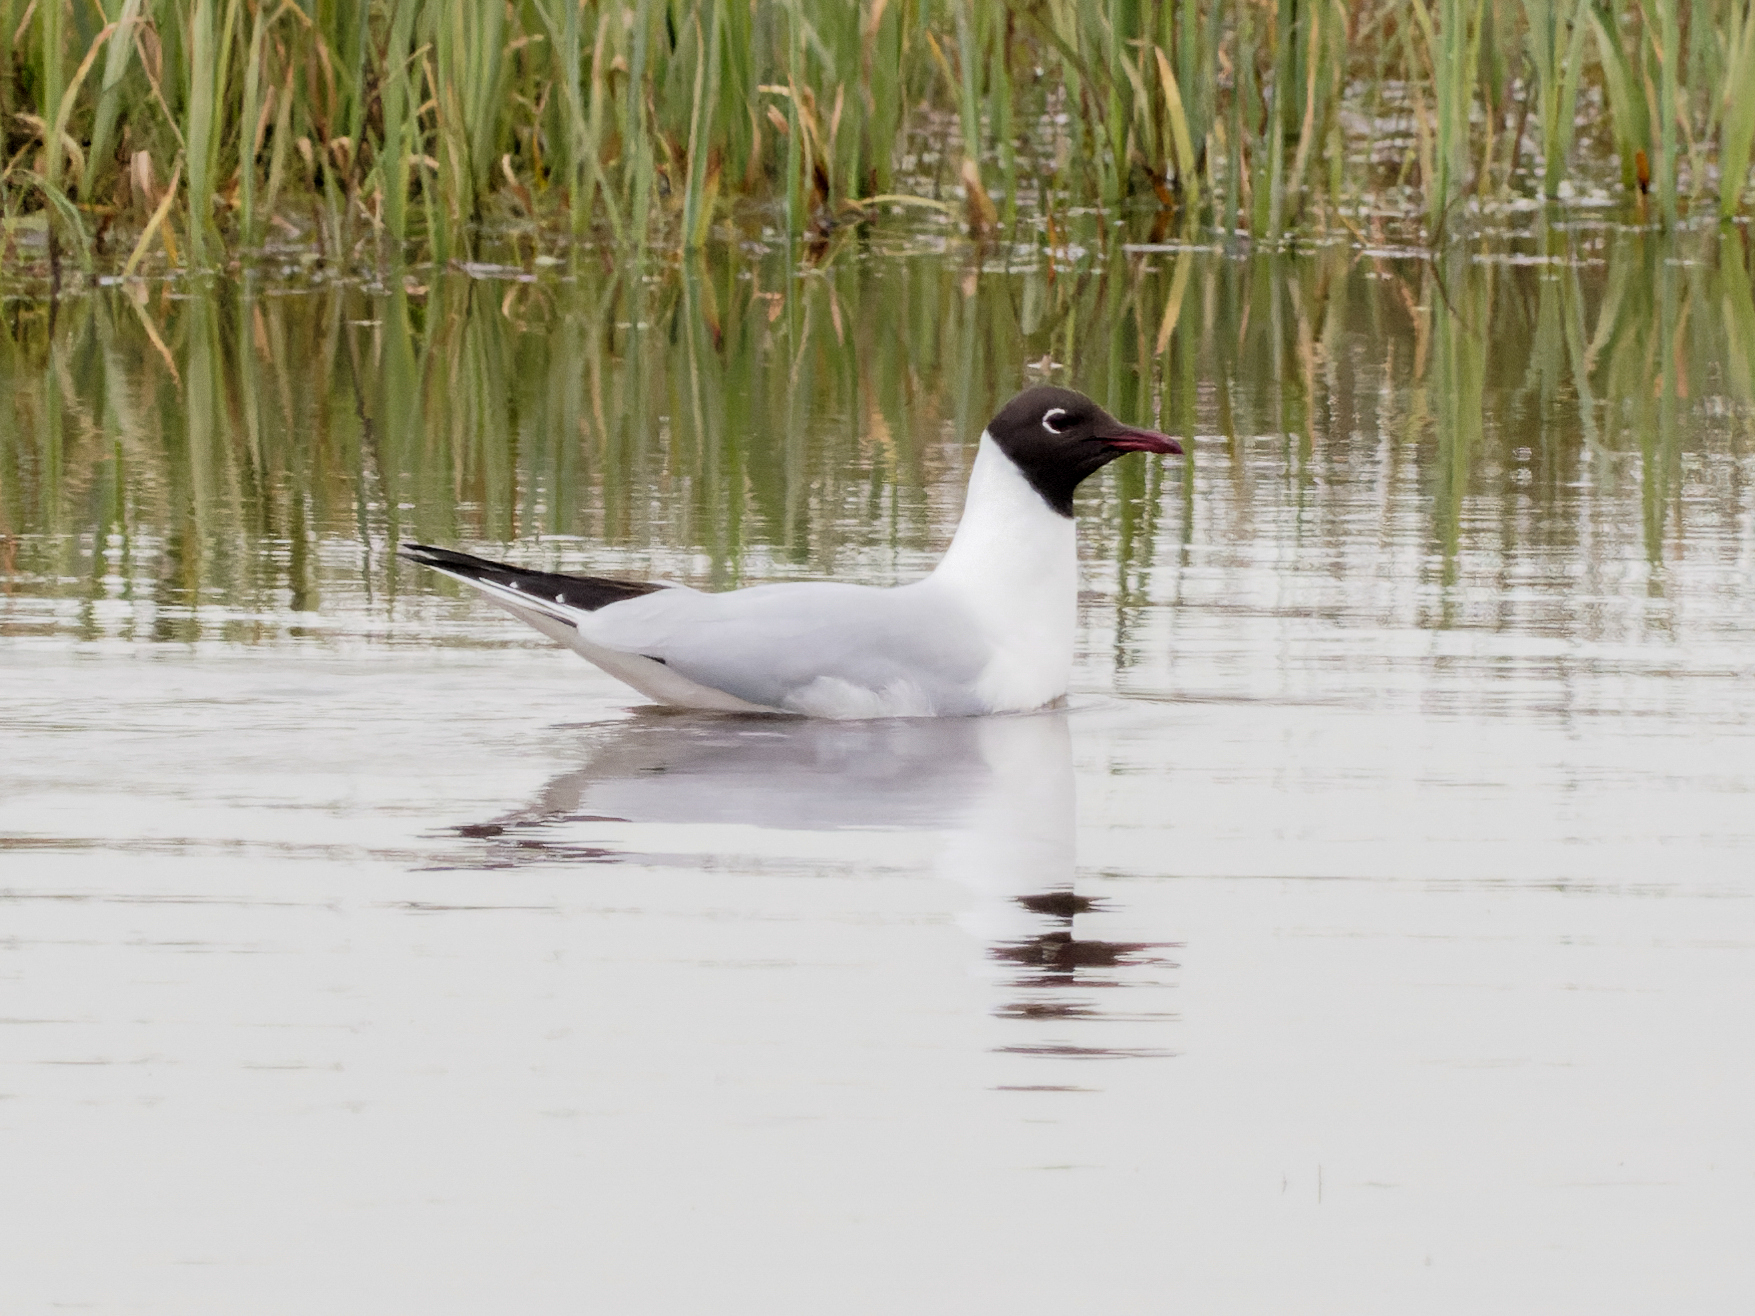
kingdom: Animalia
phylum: Chordata
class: Aves
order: Charadriiformes
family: Laridae
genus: Chroicocephalus
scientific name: Chroicocephalus ridibundus
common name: Black-headed gull
